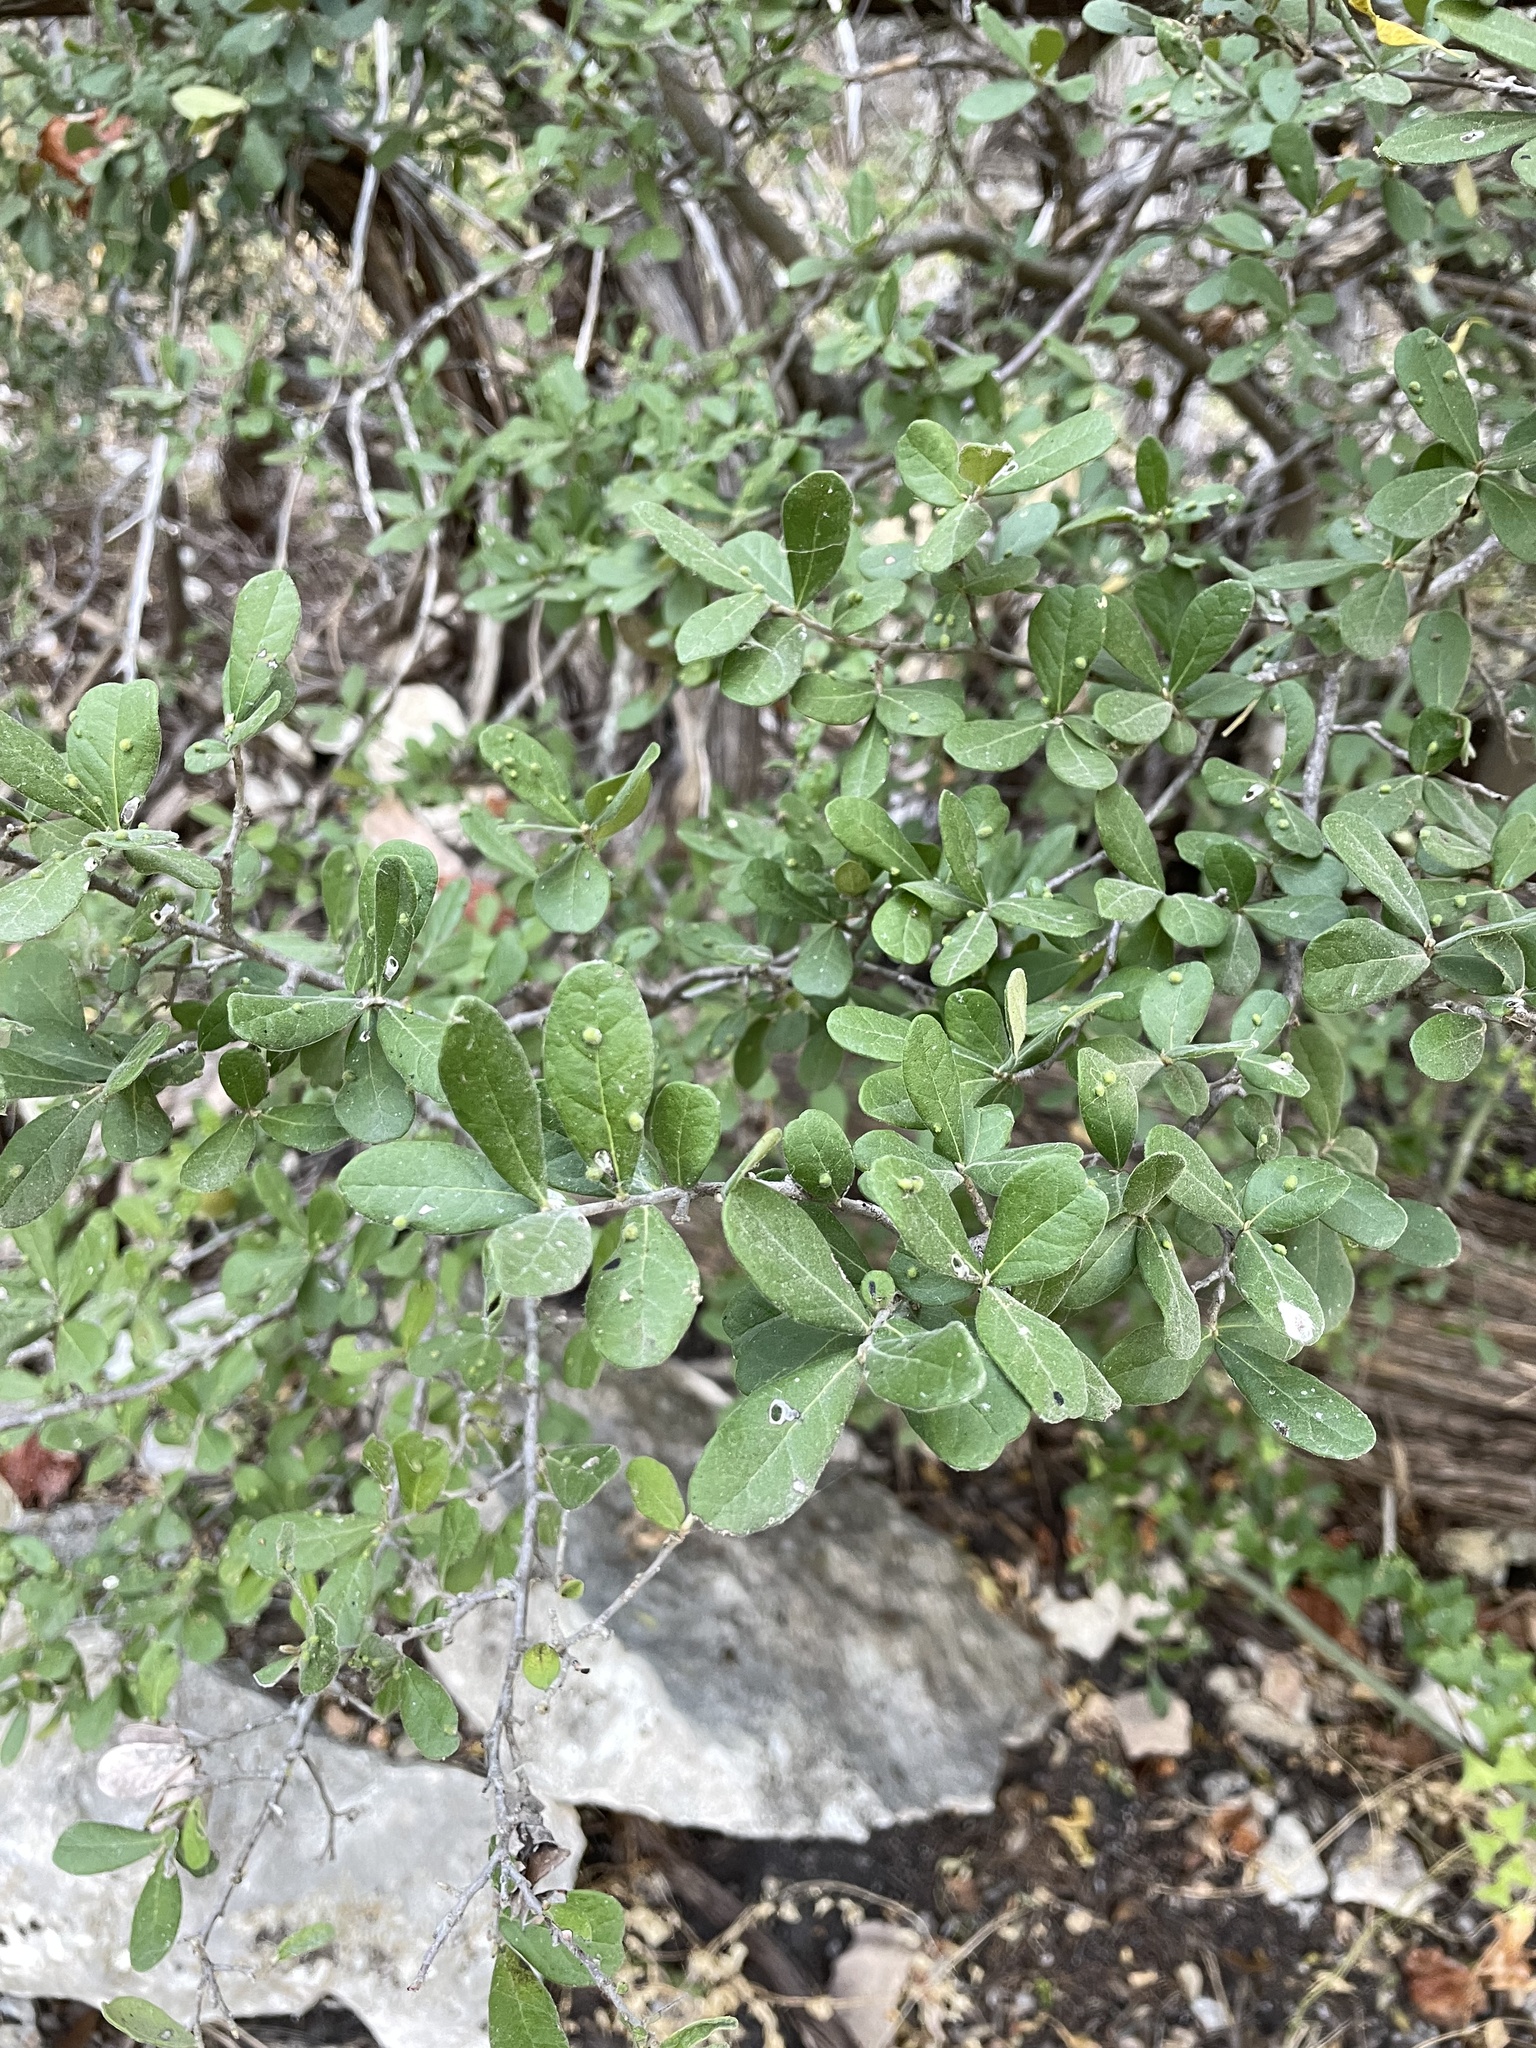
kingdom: Plantae
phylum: Tracheophyta
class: Magnoliopsida
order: Ericales
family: Ebenaceae
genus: Diospyros
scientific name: Diospyros texana
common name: Texas persimmon
